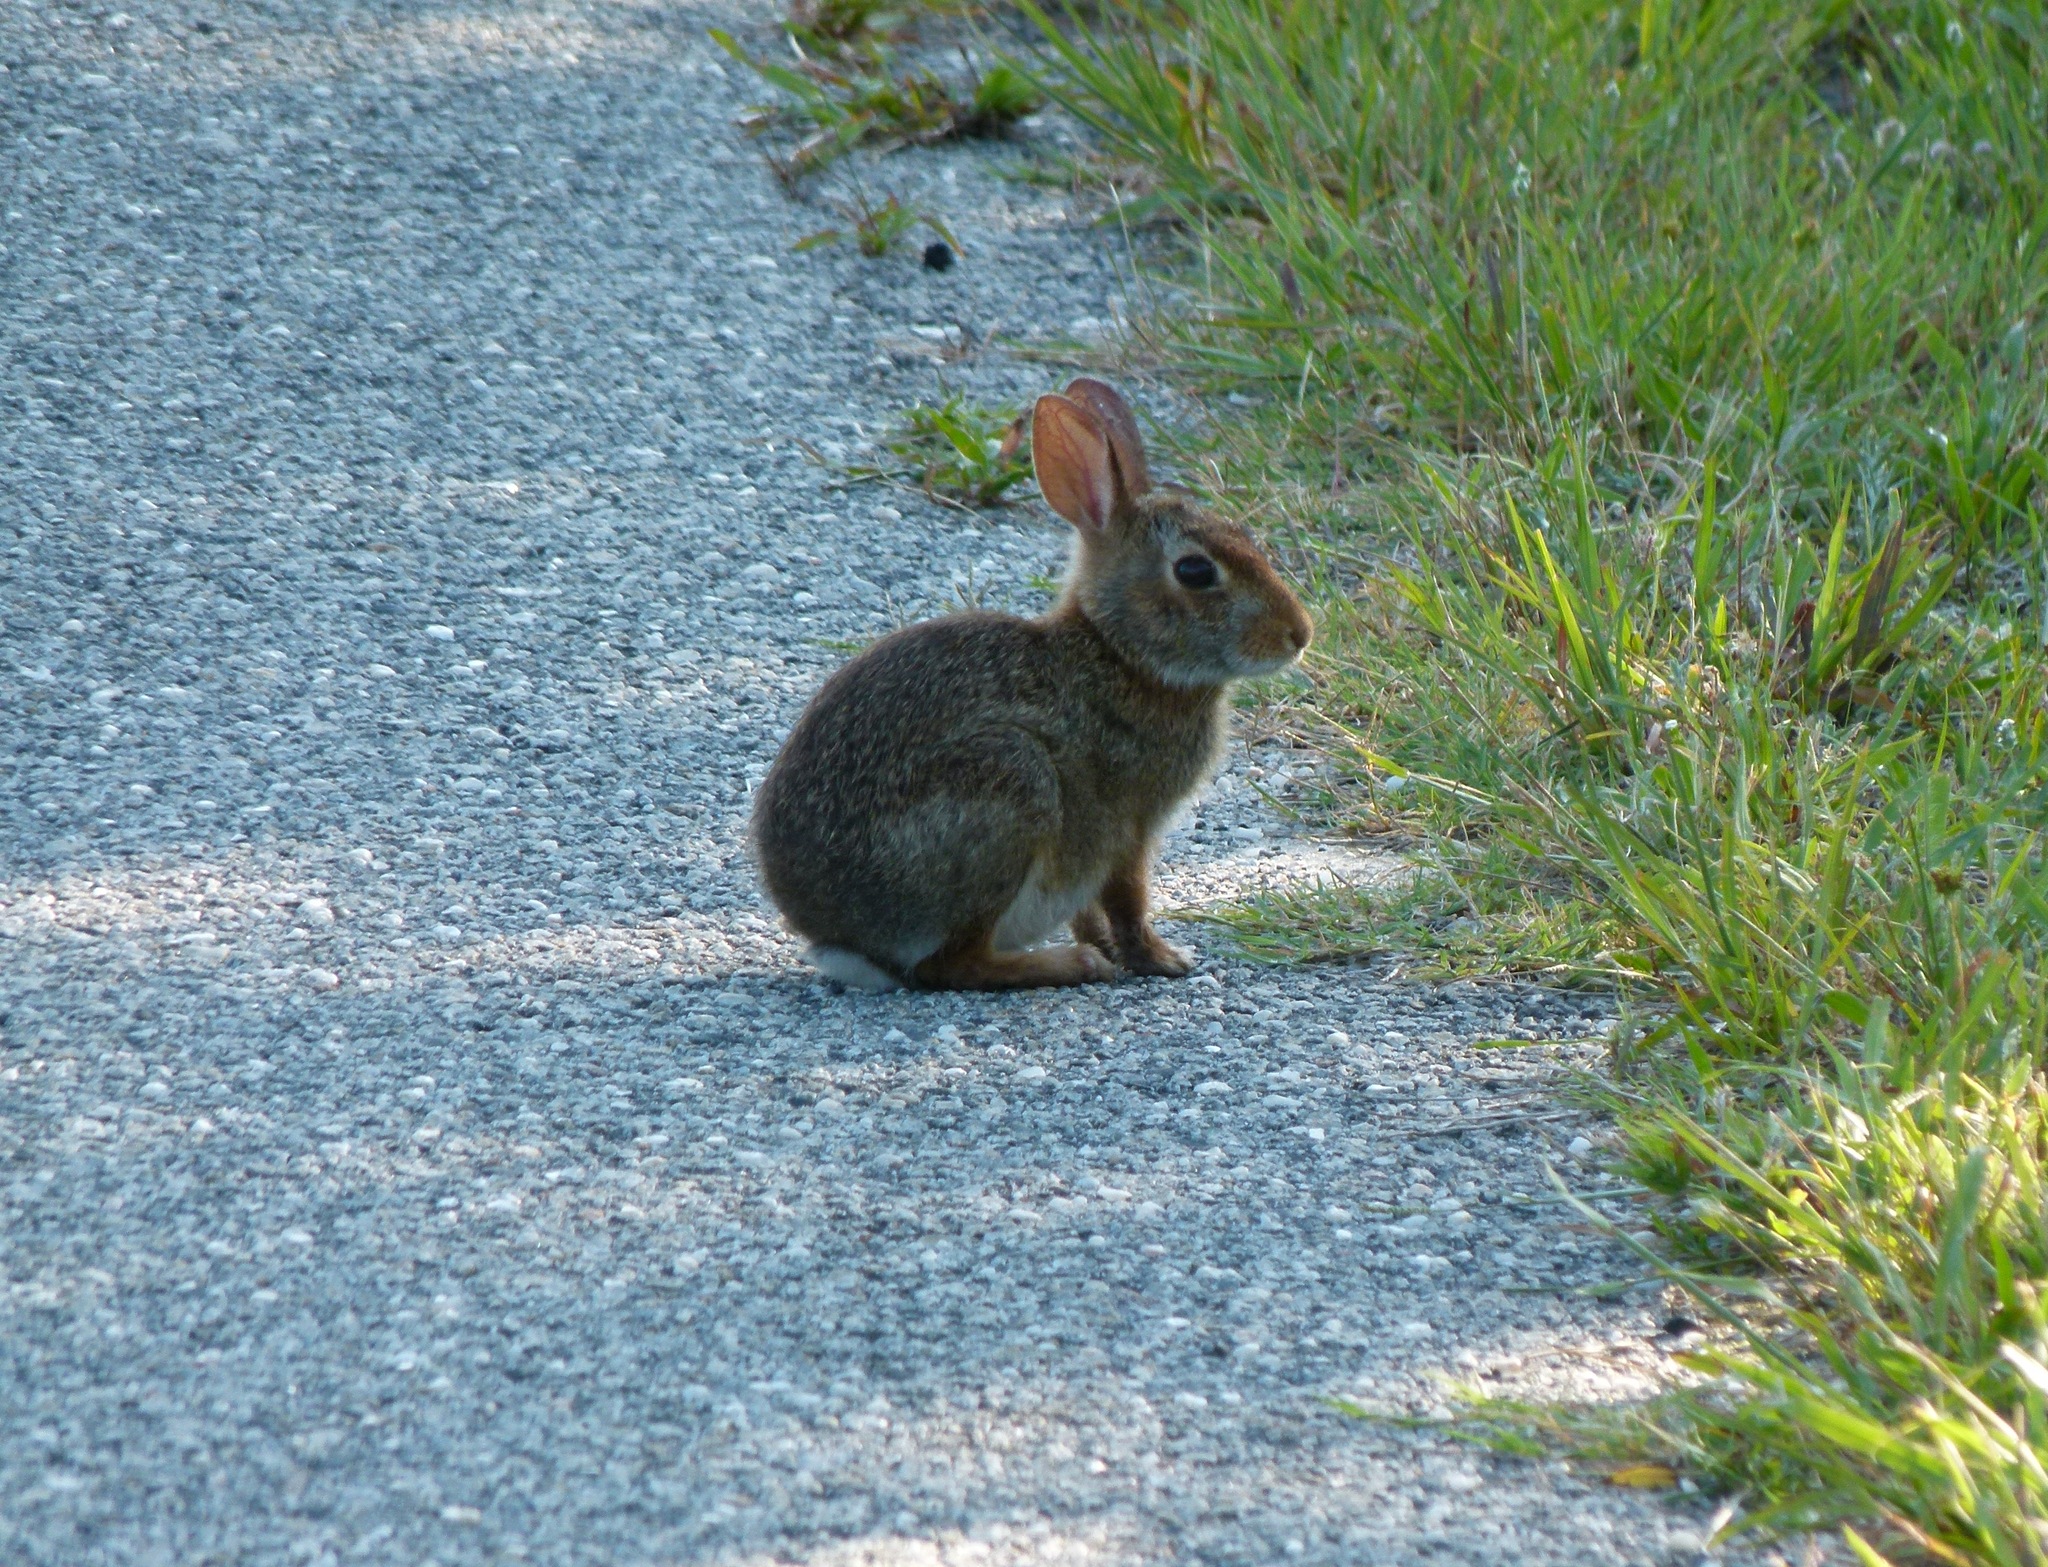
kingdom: Animalia
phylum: Chordata
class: Mammalia
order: Lagomorpha
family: Leporidae
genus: Sylvilagus
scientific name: Sylvilagus floridanus
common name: Eastern cottontail
